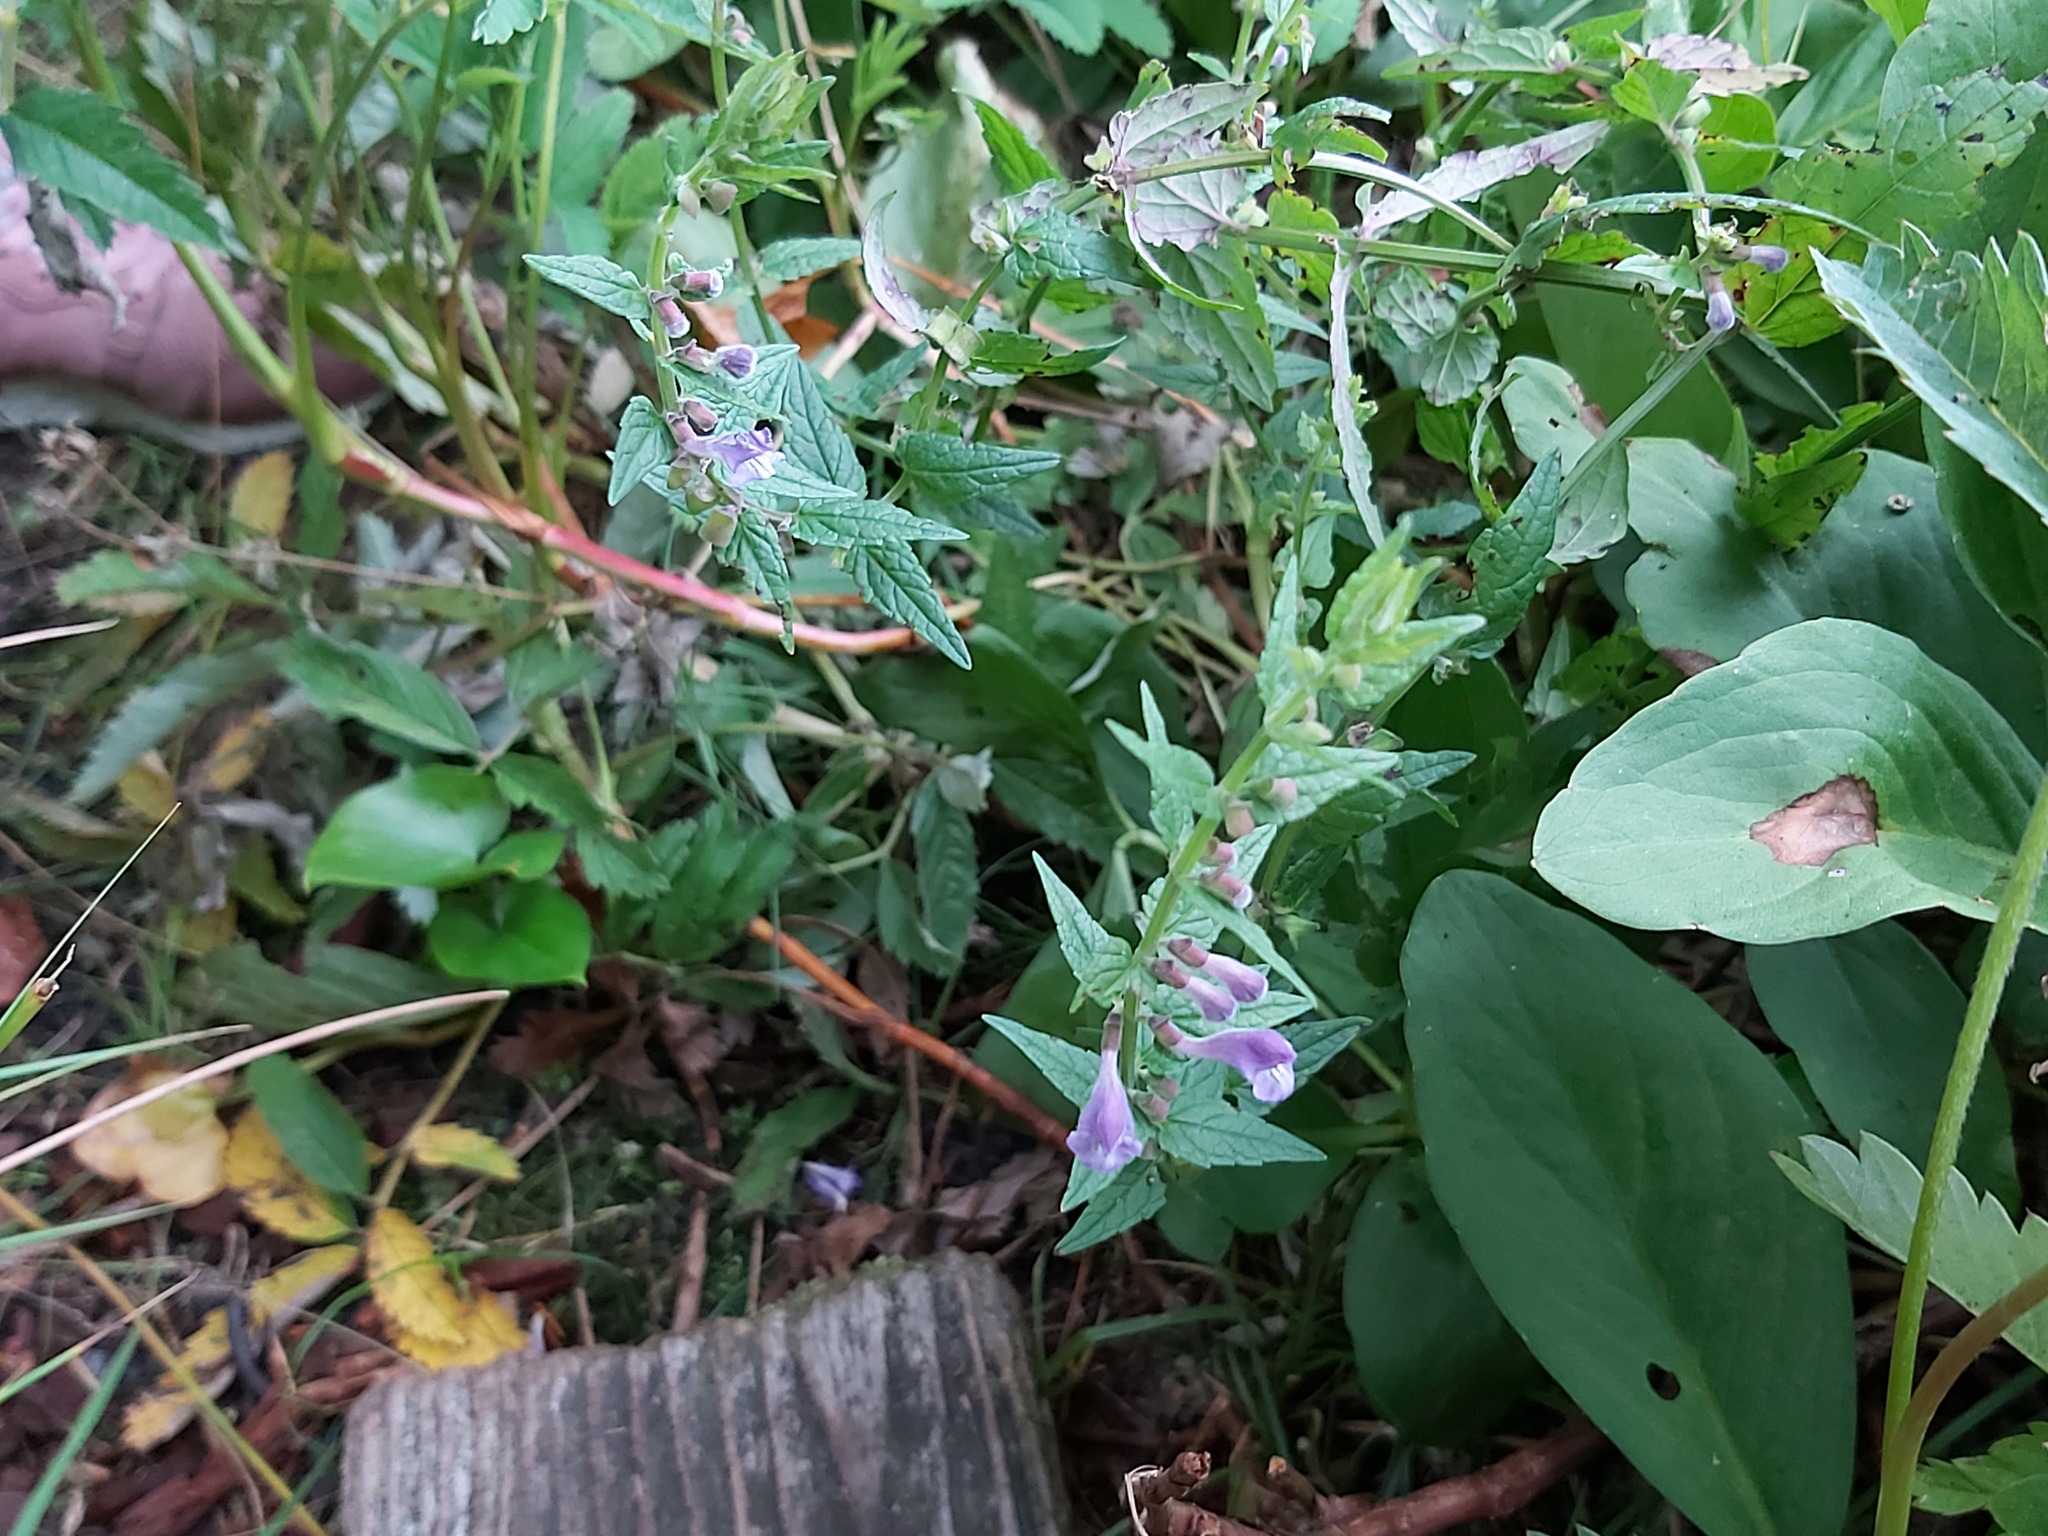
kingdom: Plantae
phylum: Tracheophyta
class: Magnoliopsida
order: Lamiales
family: Lamiaceae
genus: Scutellaria
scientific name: Scutellaria galericulata
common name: Skullcap
